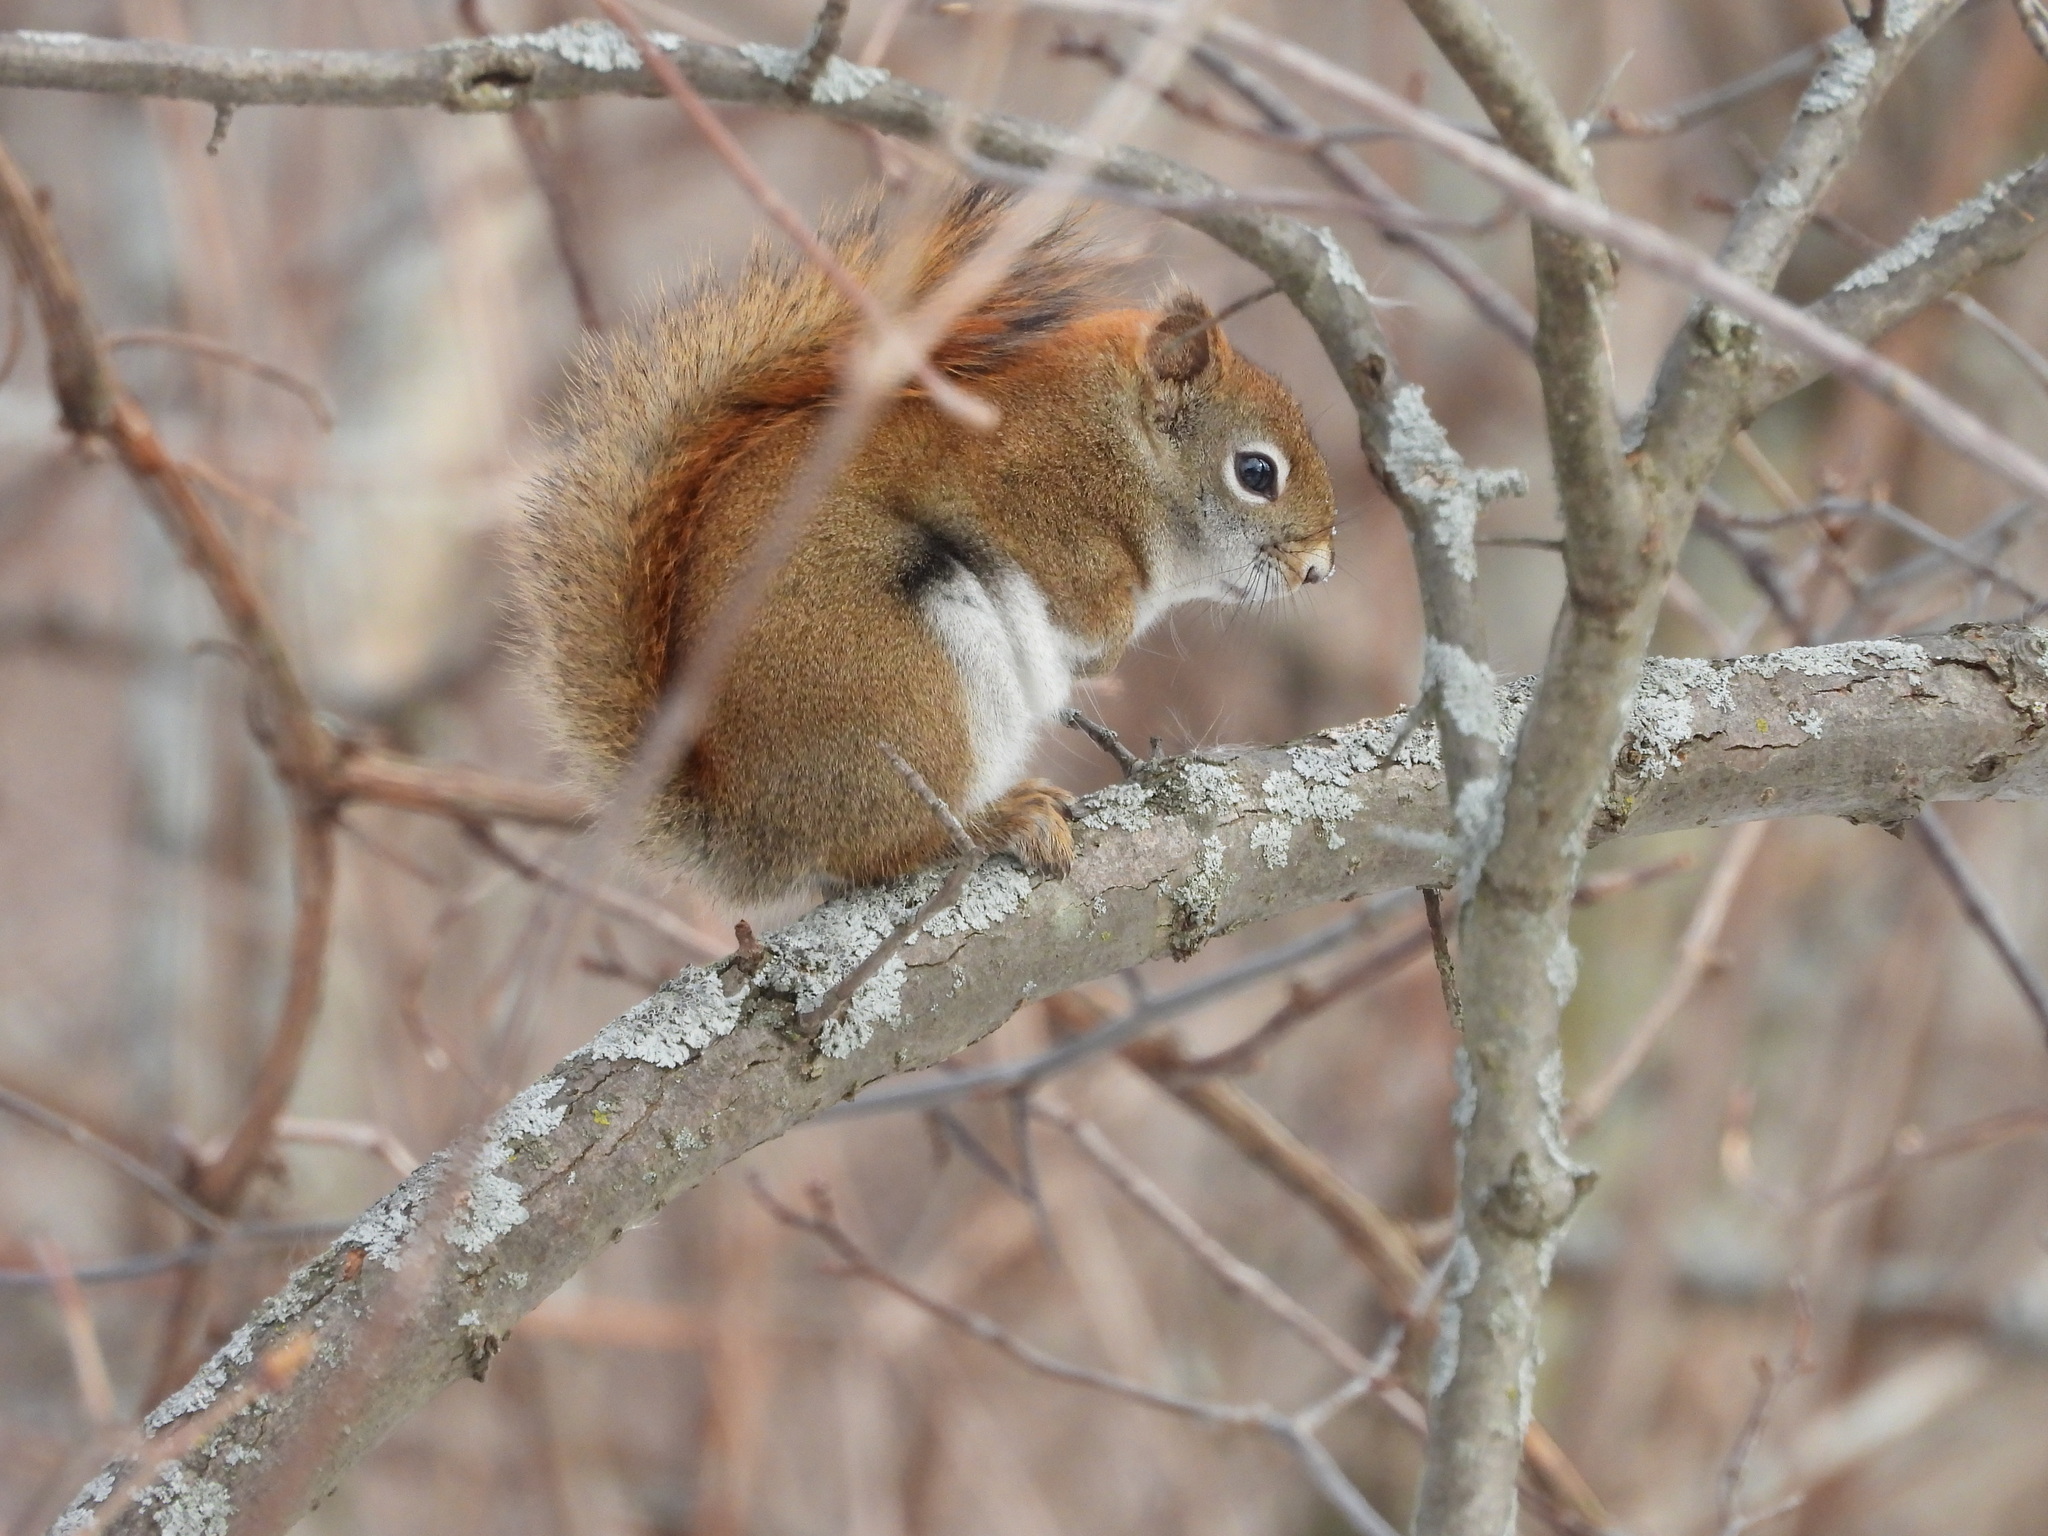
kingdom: Animalia
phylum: Chordata
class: Mammalia
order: Rodentia
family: Sciuridae
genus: Tamiasciurus
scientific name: Tamiasciurus hudsonicus
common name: Red squirrel
